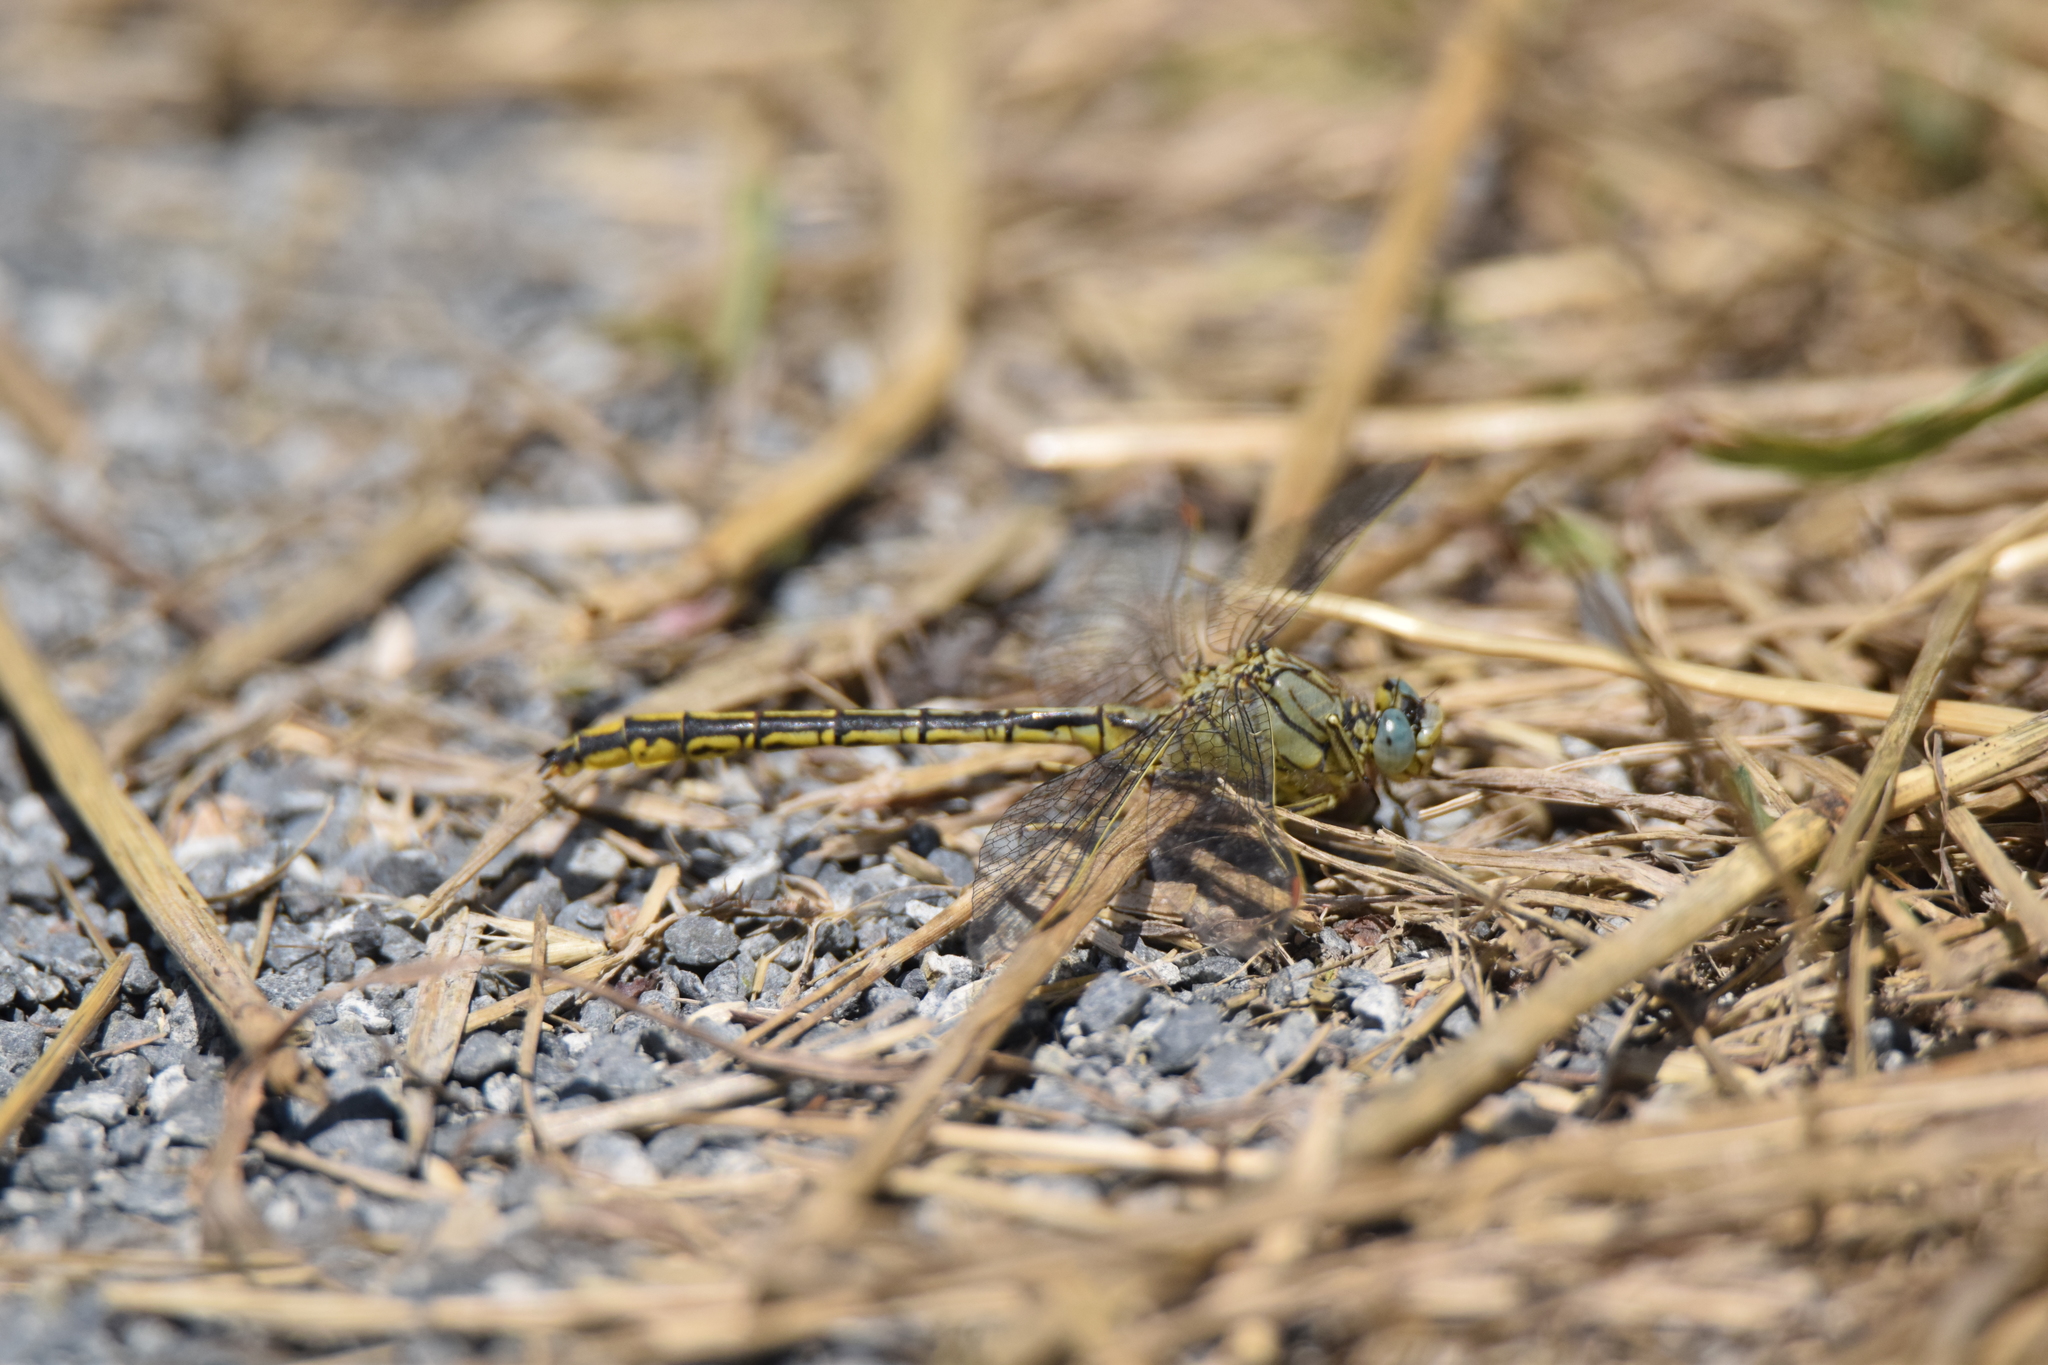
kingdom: Animalia
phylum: Arthropoda
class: Insecta
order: Odonata
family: Gomphidae
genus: Gomphus
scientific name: Gomphus pulchellus
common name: Western clubtail
